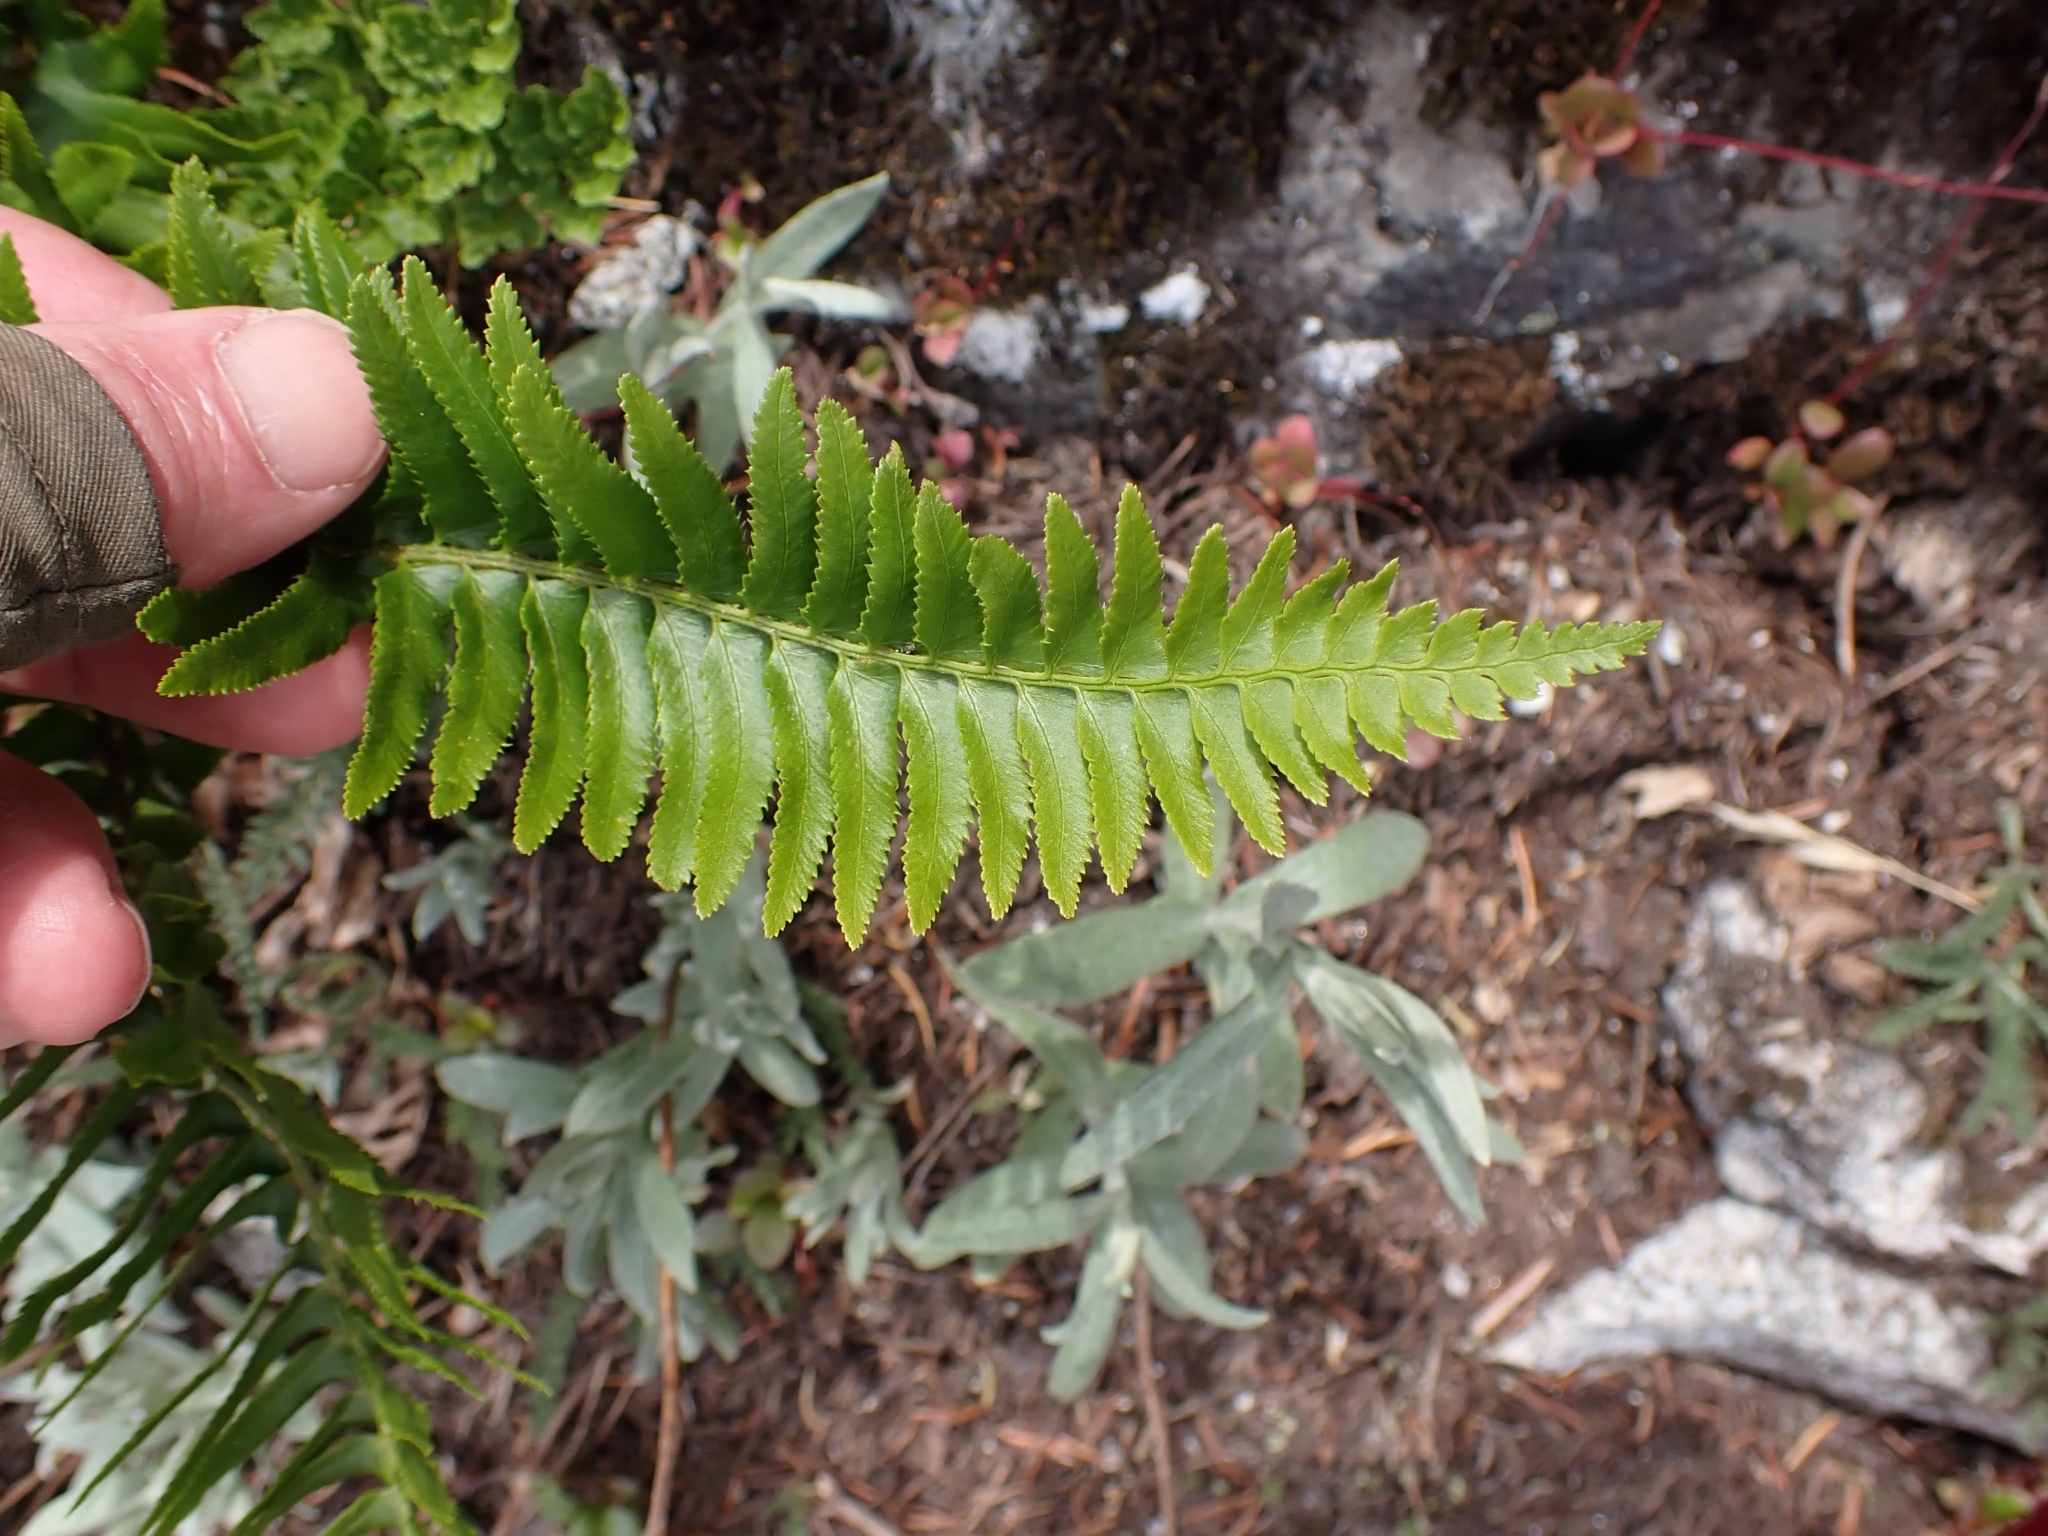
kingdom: Plantae
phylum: Tracheophyta
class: Polypodiopsida
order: Polypodiales
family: Dryopteridaceae
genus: Polystichum
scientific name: Polystichum munitum
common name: Western sword-fern
